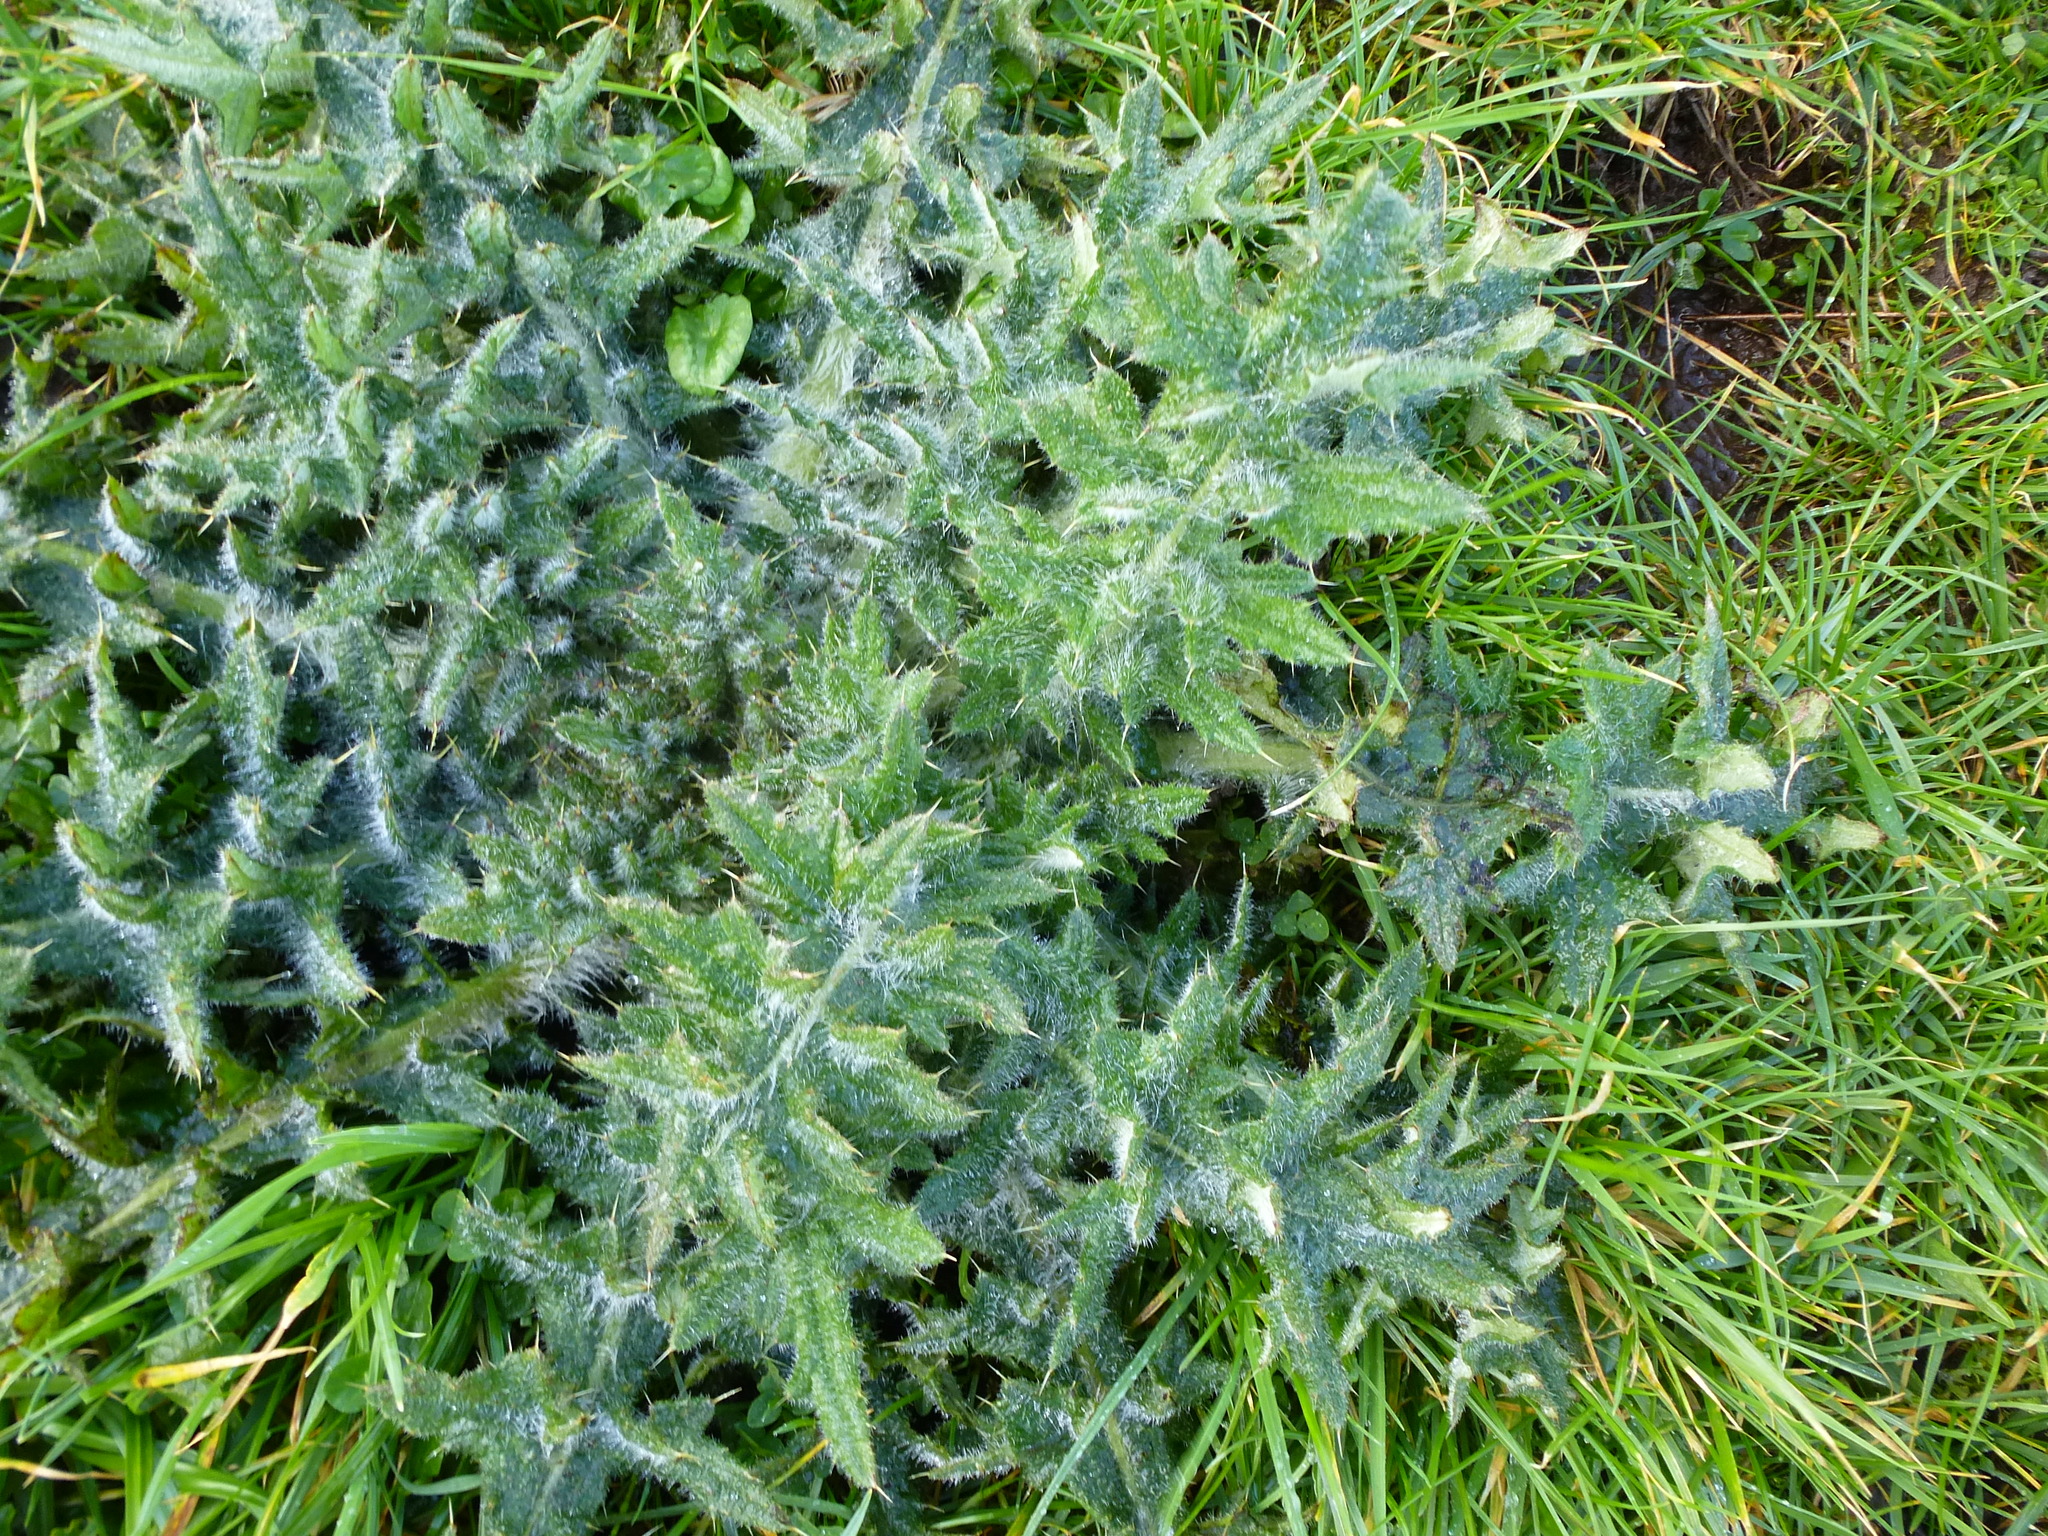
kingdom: Plantae
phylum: Tracheophyta
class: Magnoliopsida
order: Asterales
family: Asteraceae
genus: Cirsium
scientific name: Cirsium vulgare
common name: Bull thistle
